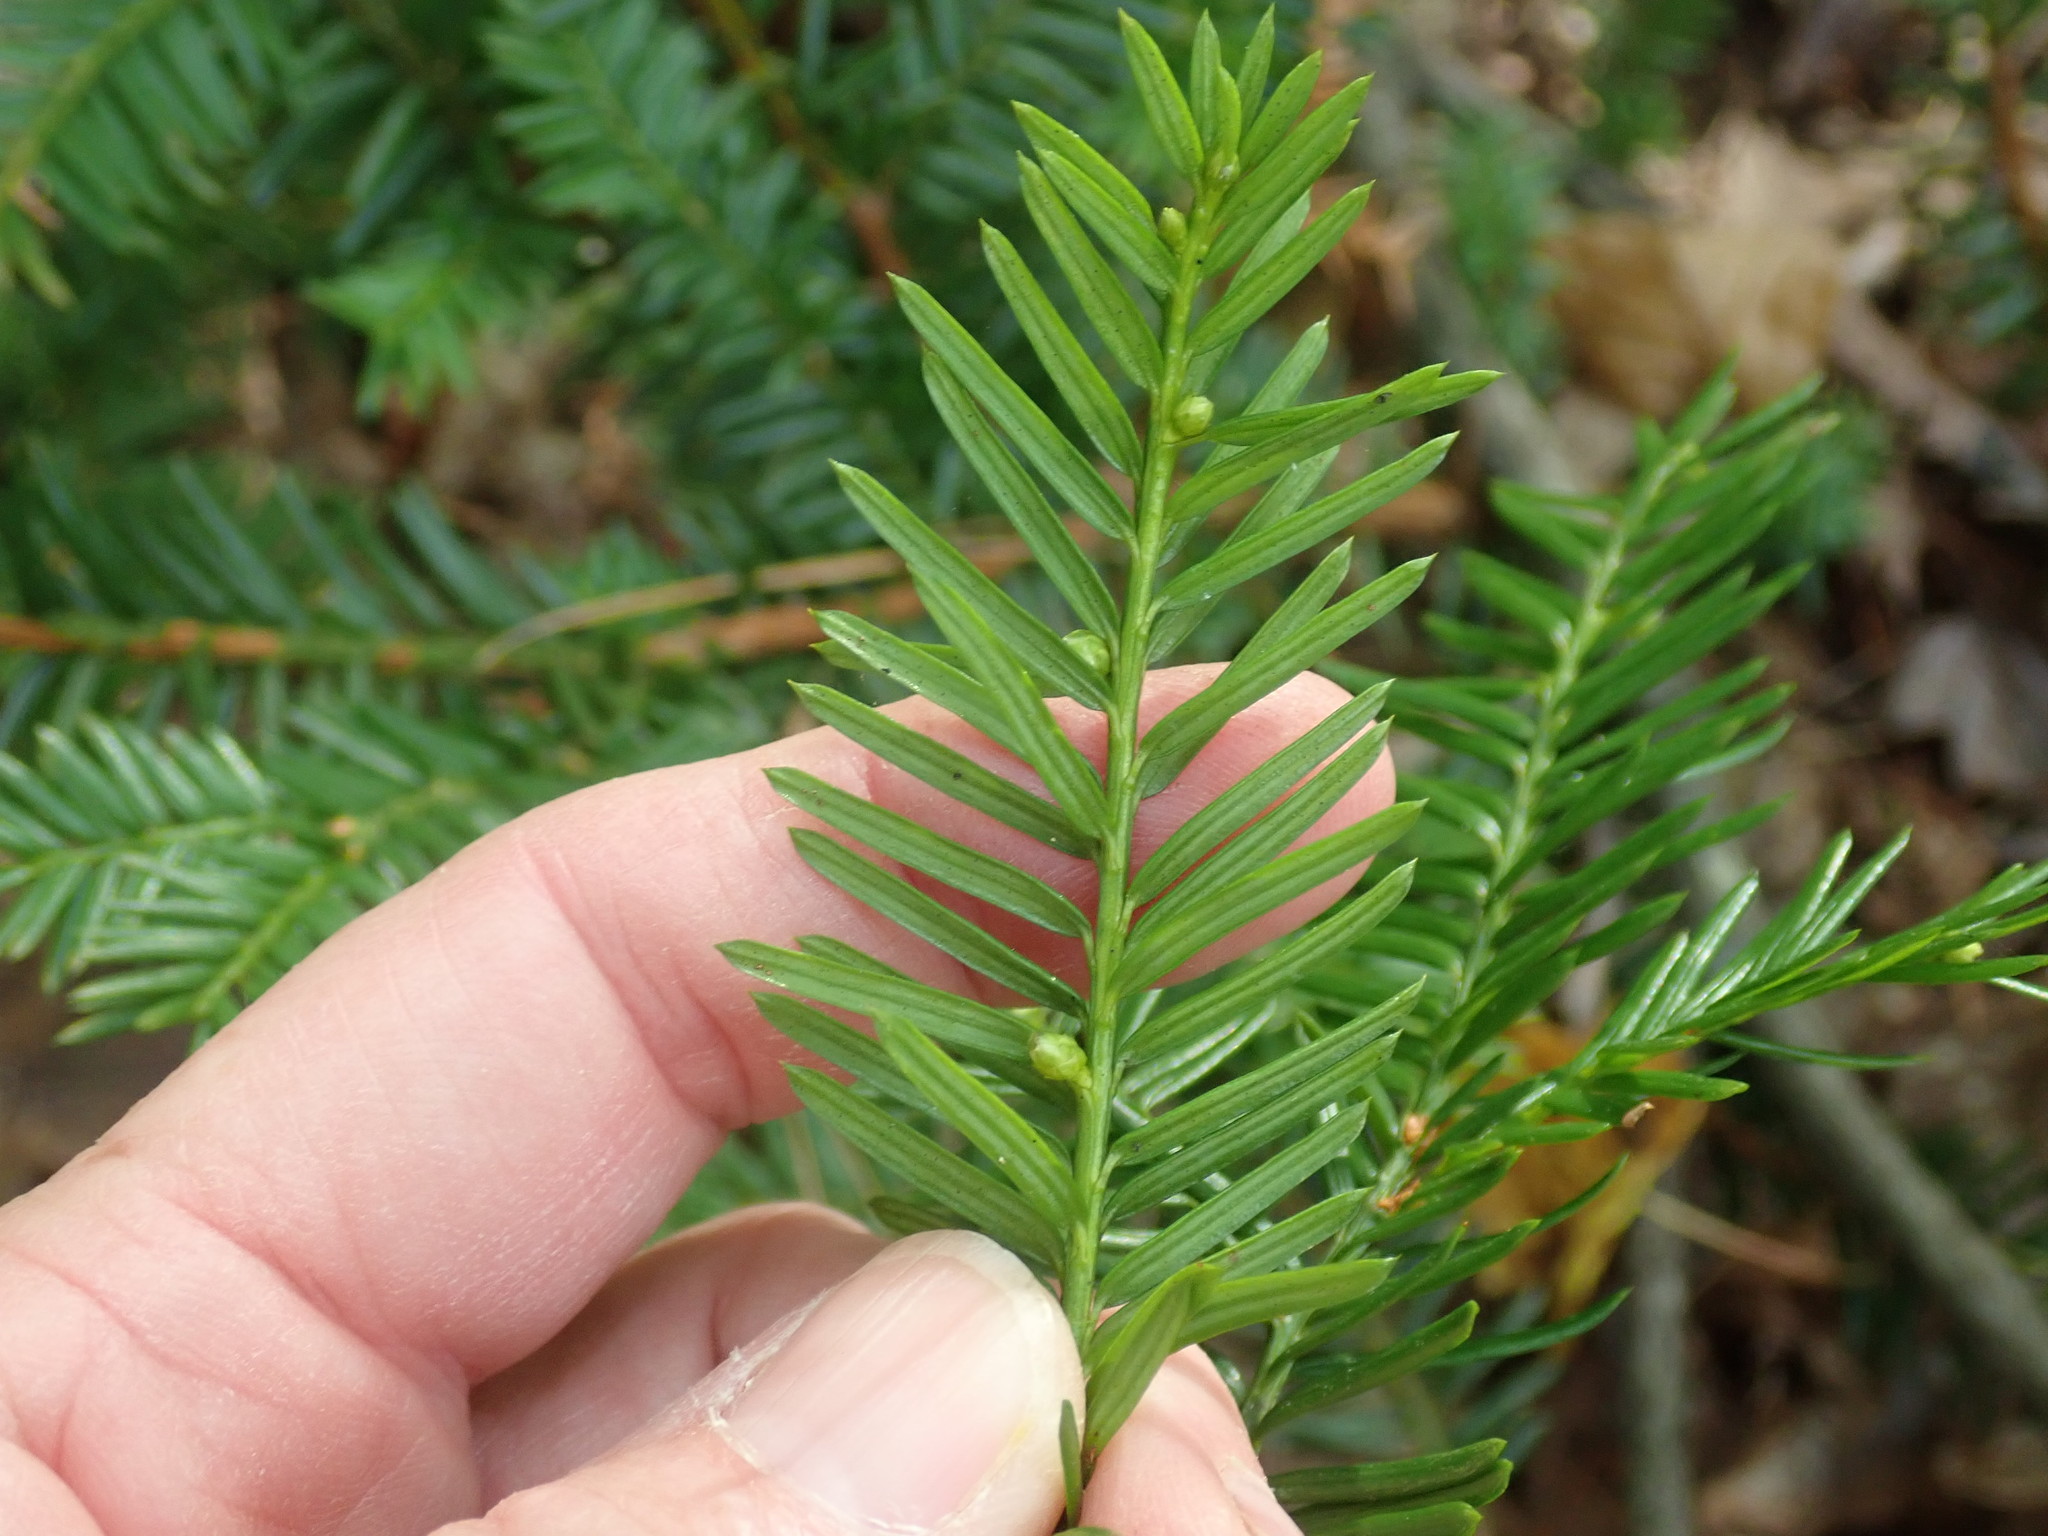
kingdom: Plantae
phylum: Tracheophyta
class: Pinopsida
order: Pinales
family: Taxaceae
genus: Taxus
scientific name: Taxus canadensis
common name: American yew
